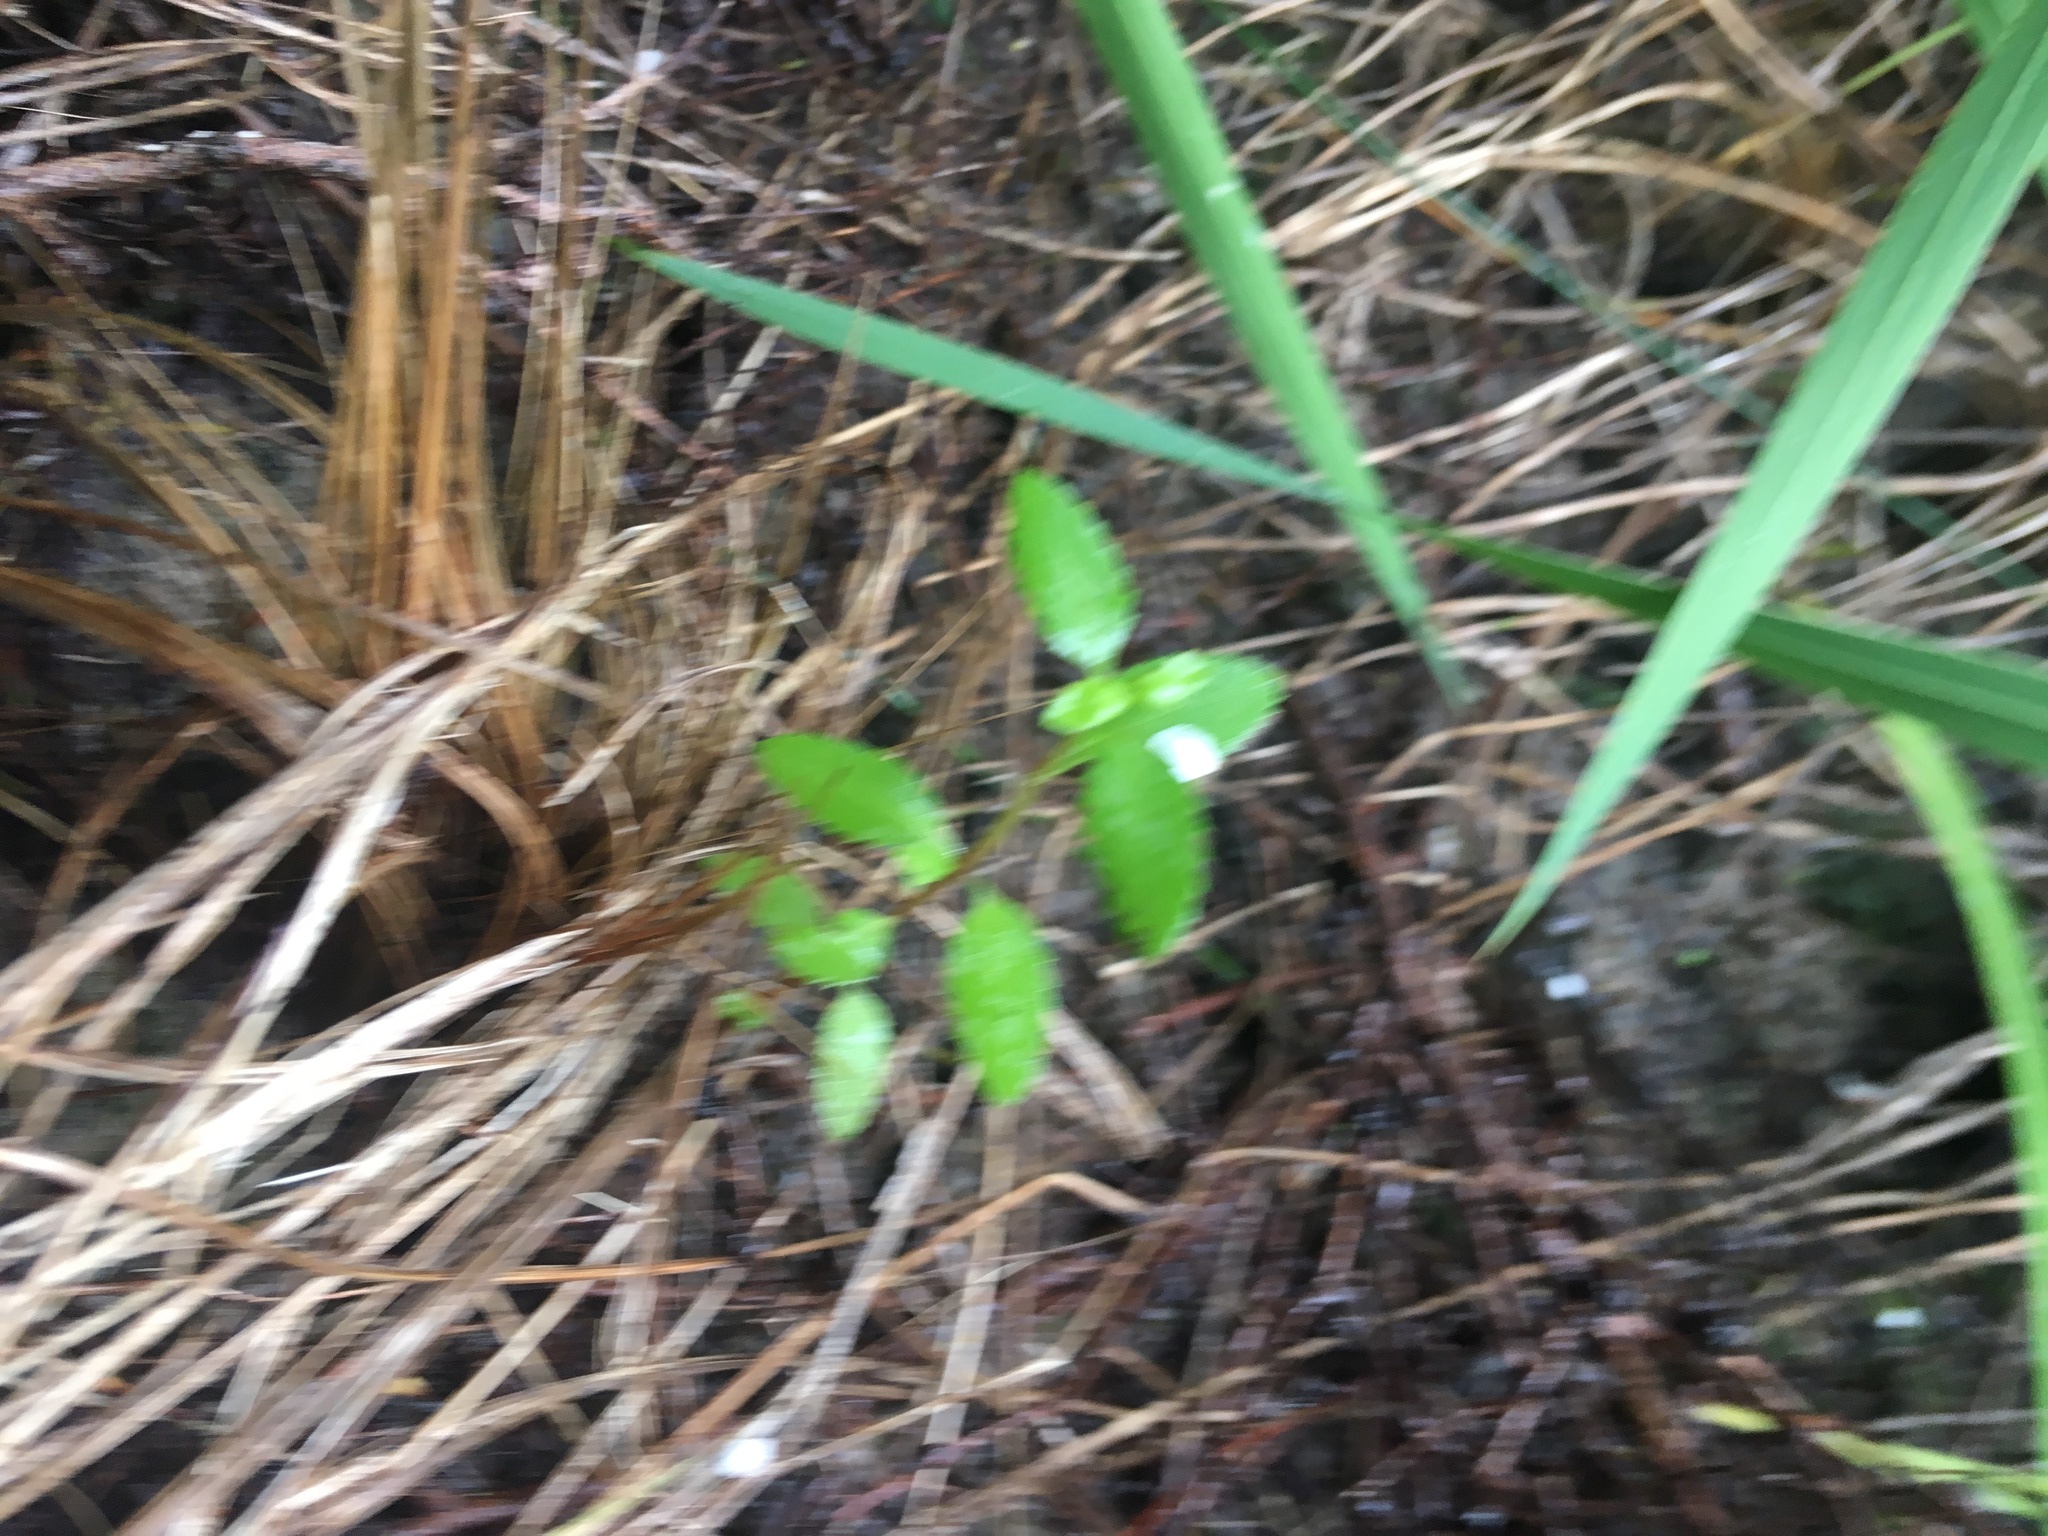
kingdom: Plantae
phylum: Tracheophyta
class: Magnoliopsida
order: Saxifragales
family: Haloragaceae
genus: Haloragis
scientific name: Haloragis erecta
